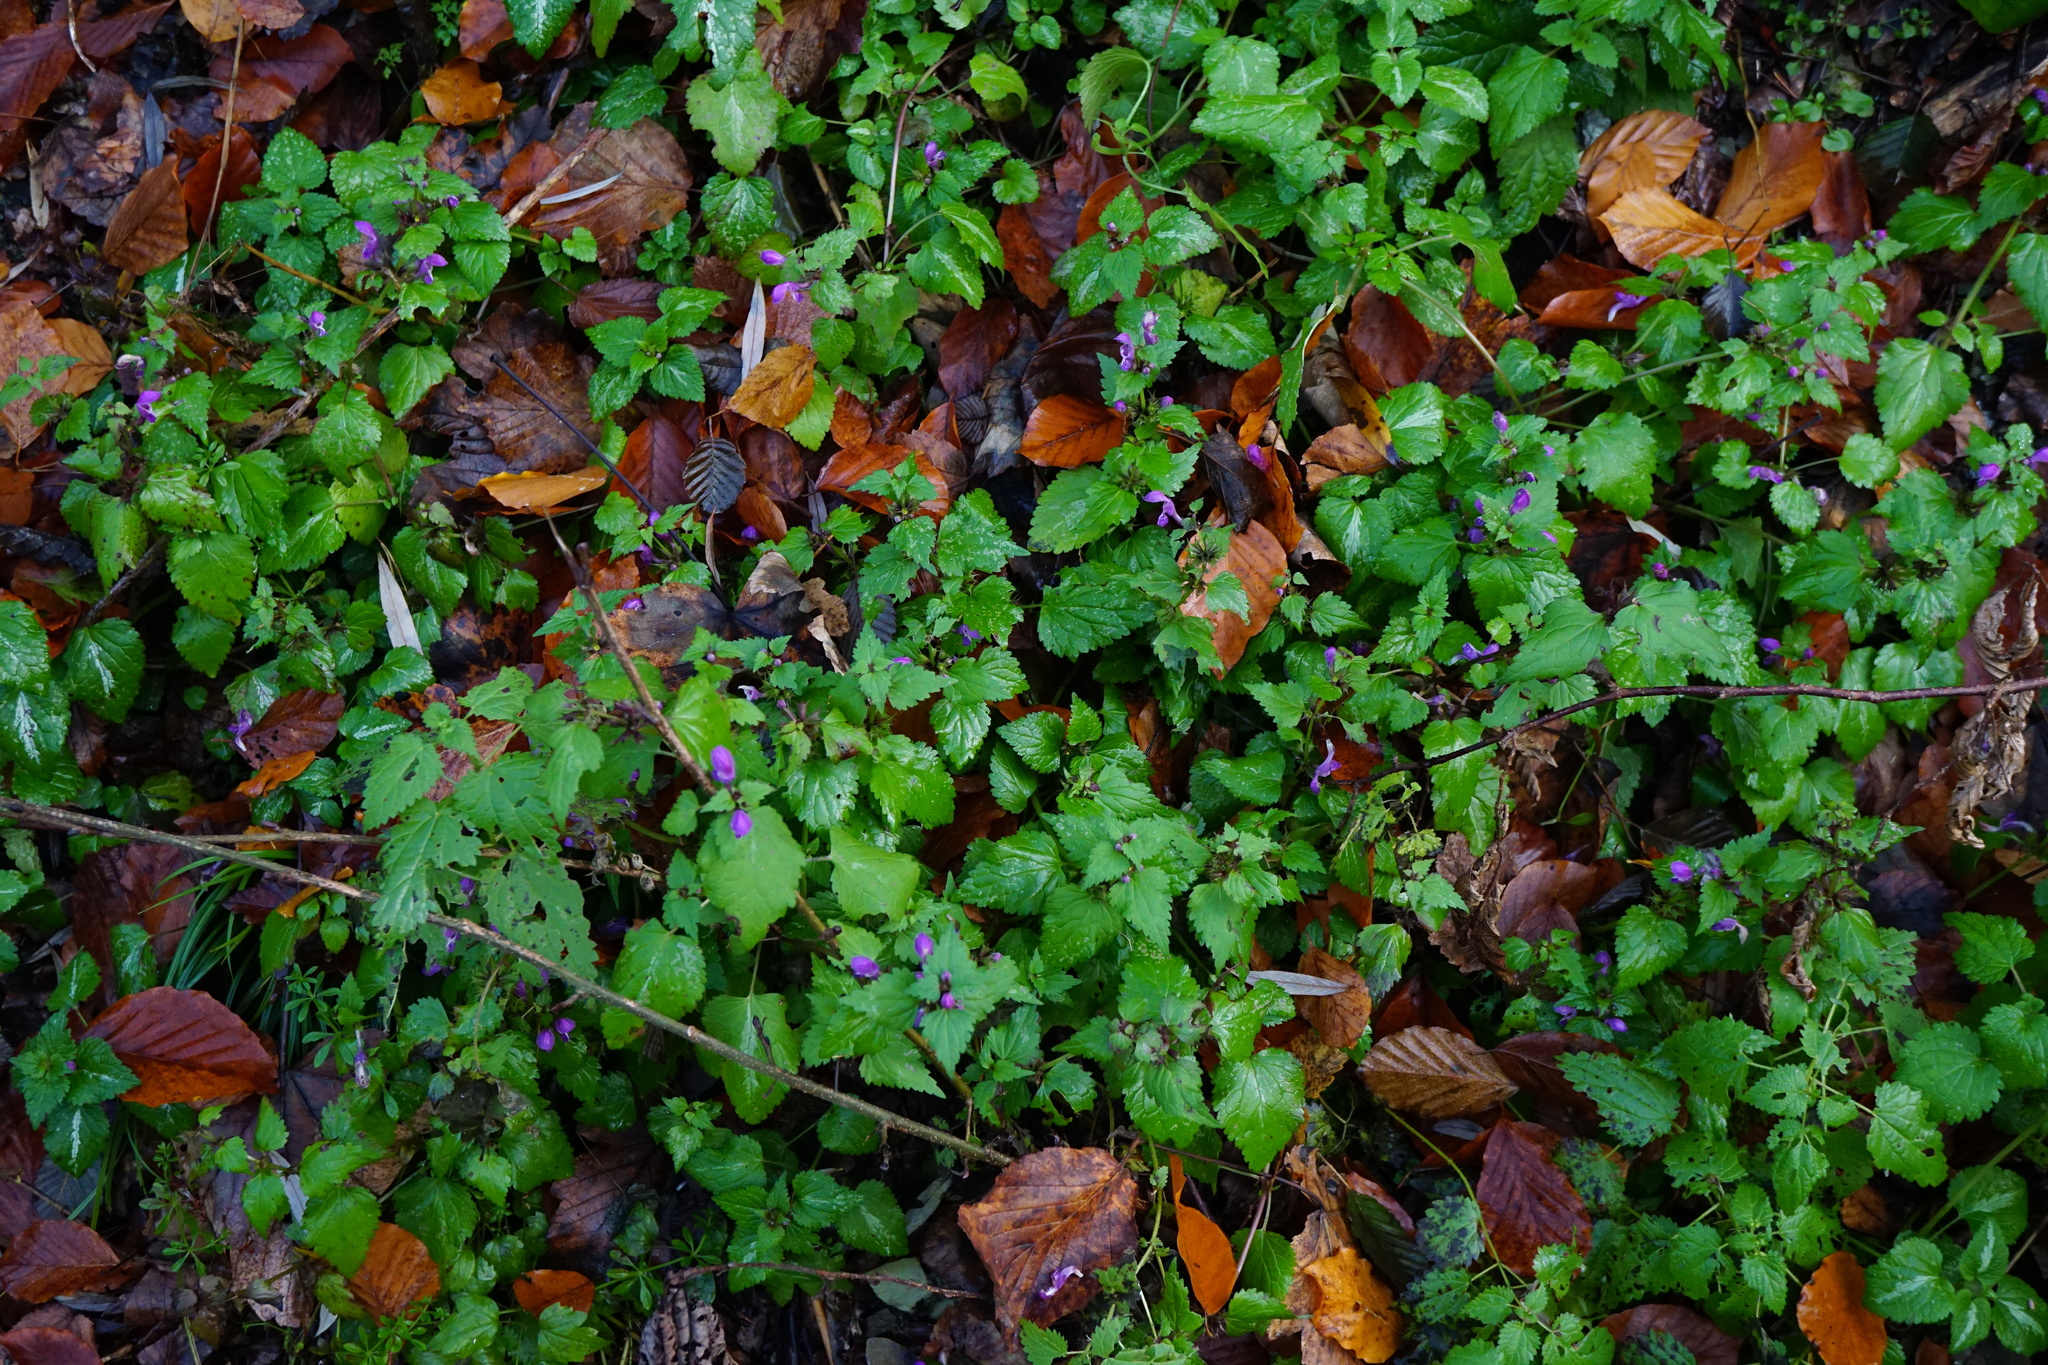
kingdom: Plantae
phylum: Tracheophyta
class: Magnoliopsida
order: Lamiales
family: Lamiaceae
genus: Lamium
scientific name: Lamium maculatum
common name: Spotted dead-nettle
